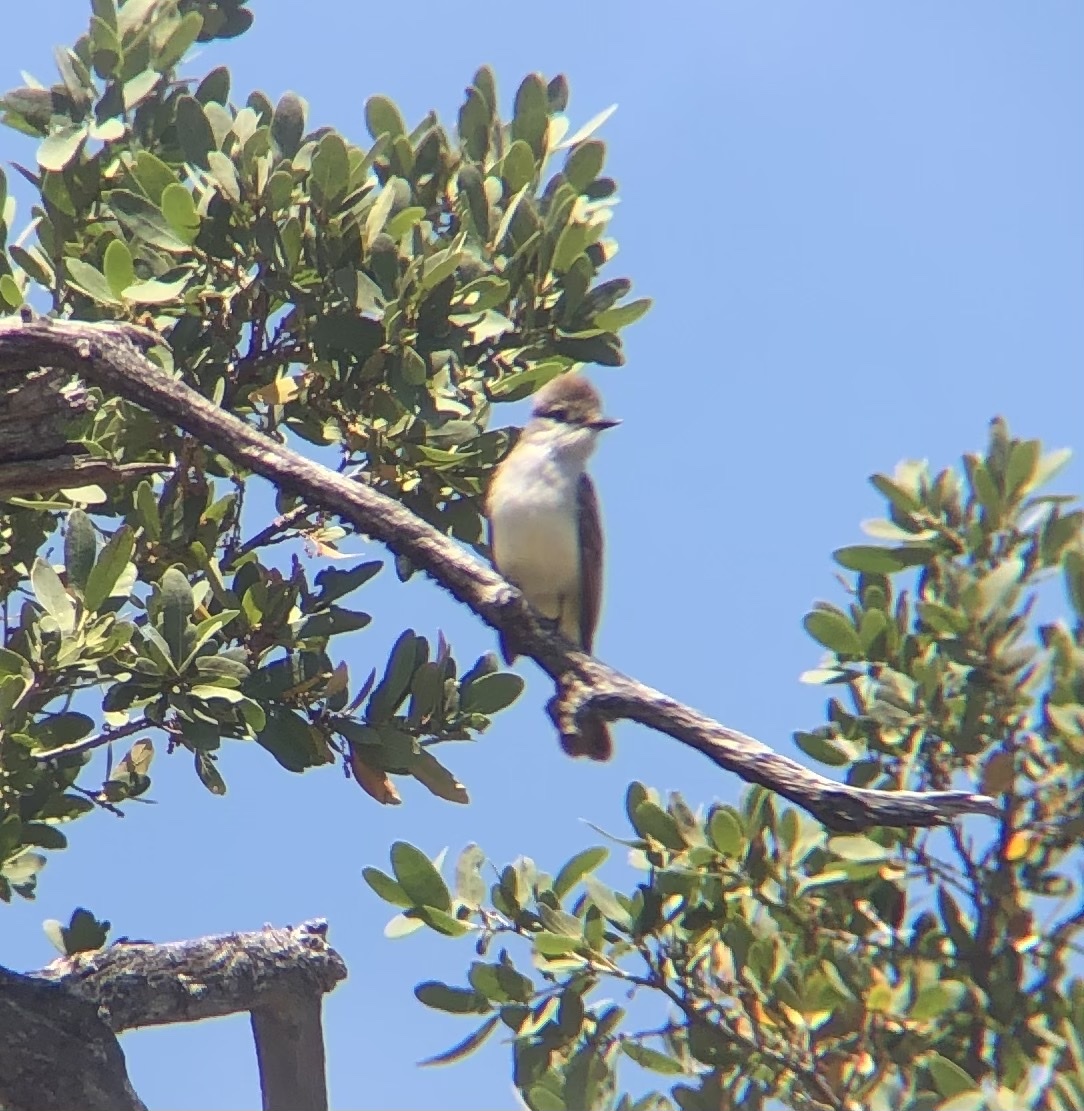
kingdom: Animalia
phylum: Chordata
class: Aves
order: Passeriformes
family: Tyrannidae
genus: Myiarchus
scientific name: Myiarchus cinerascens
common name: Ash-throated flycatcher
